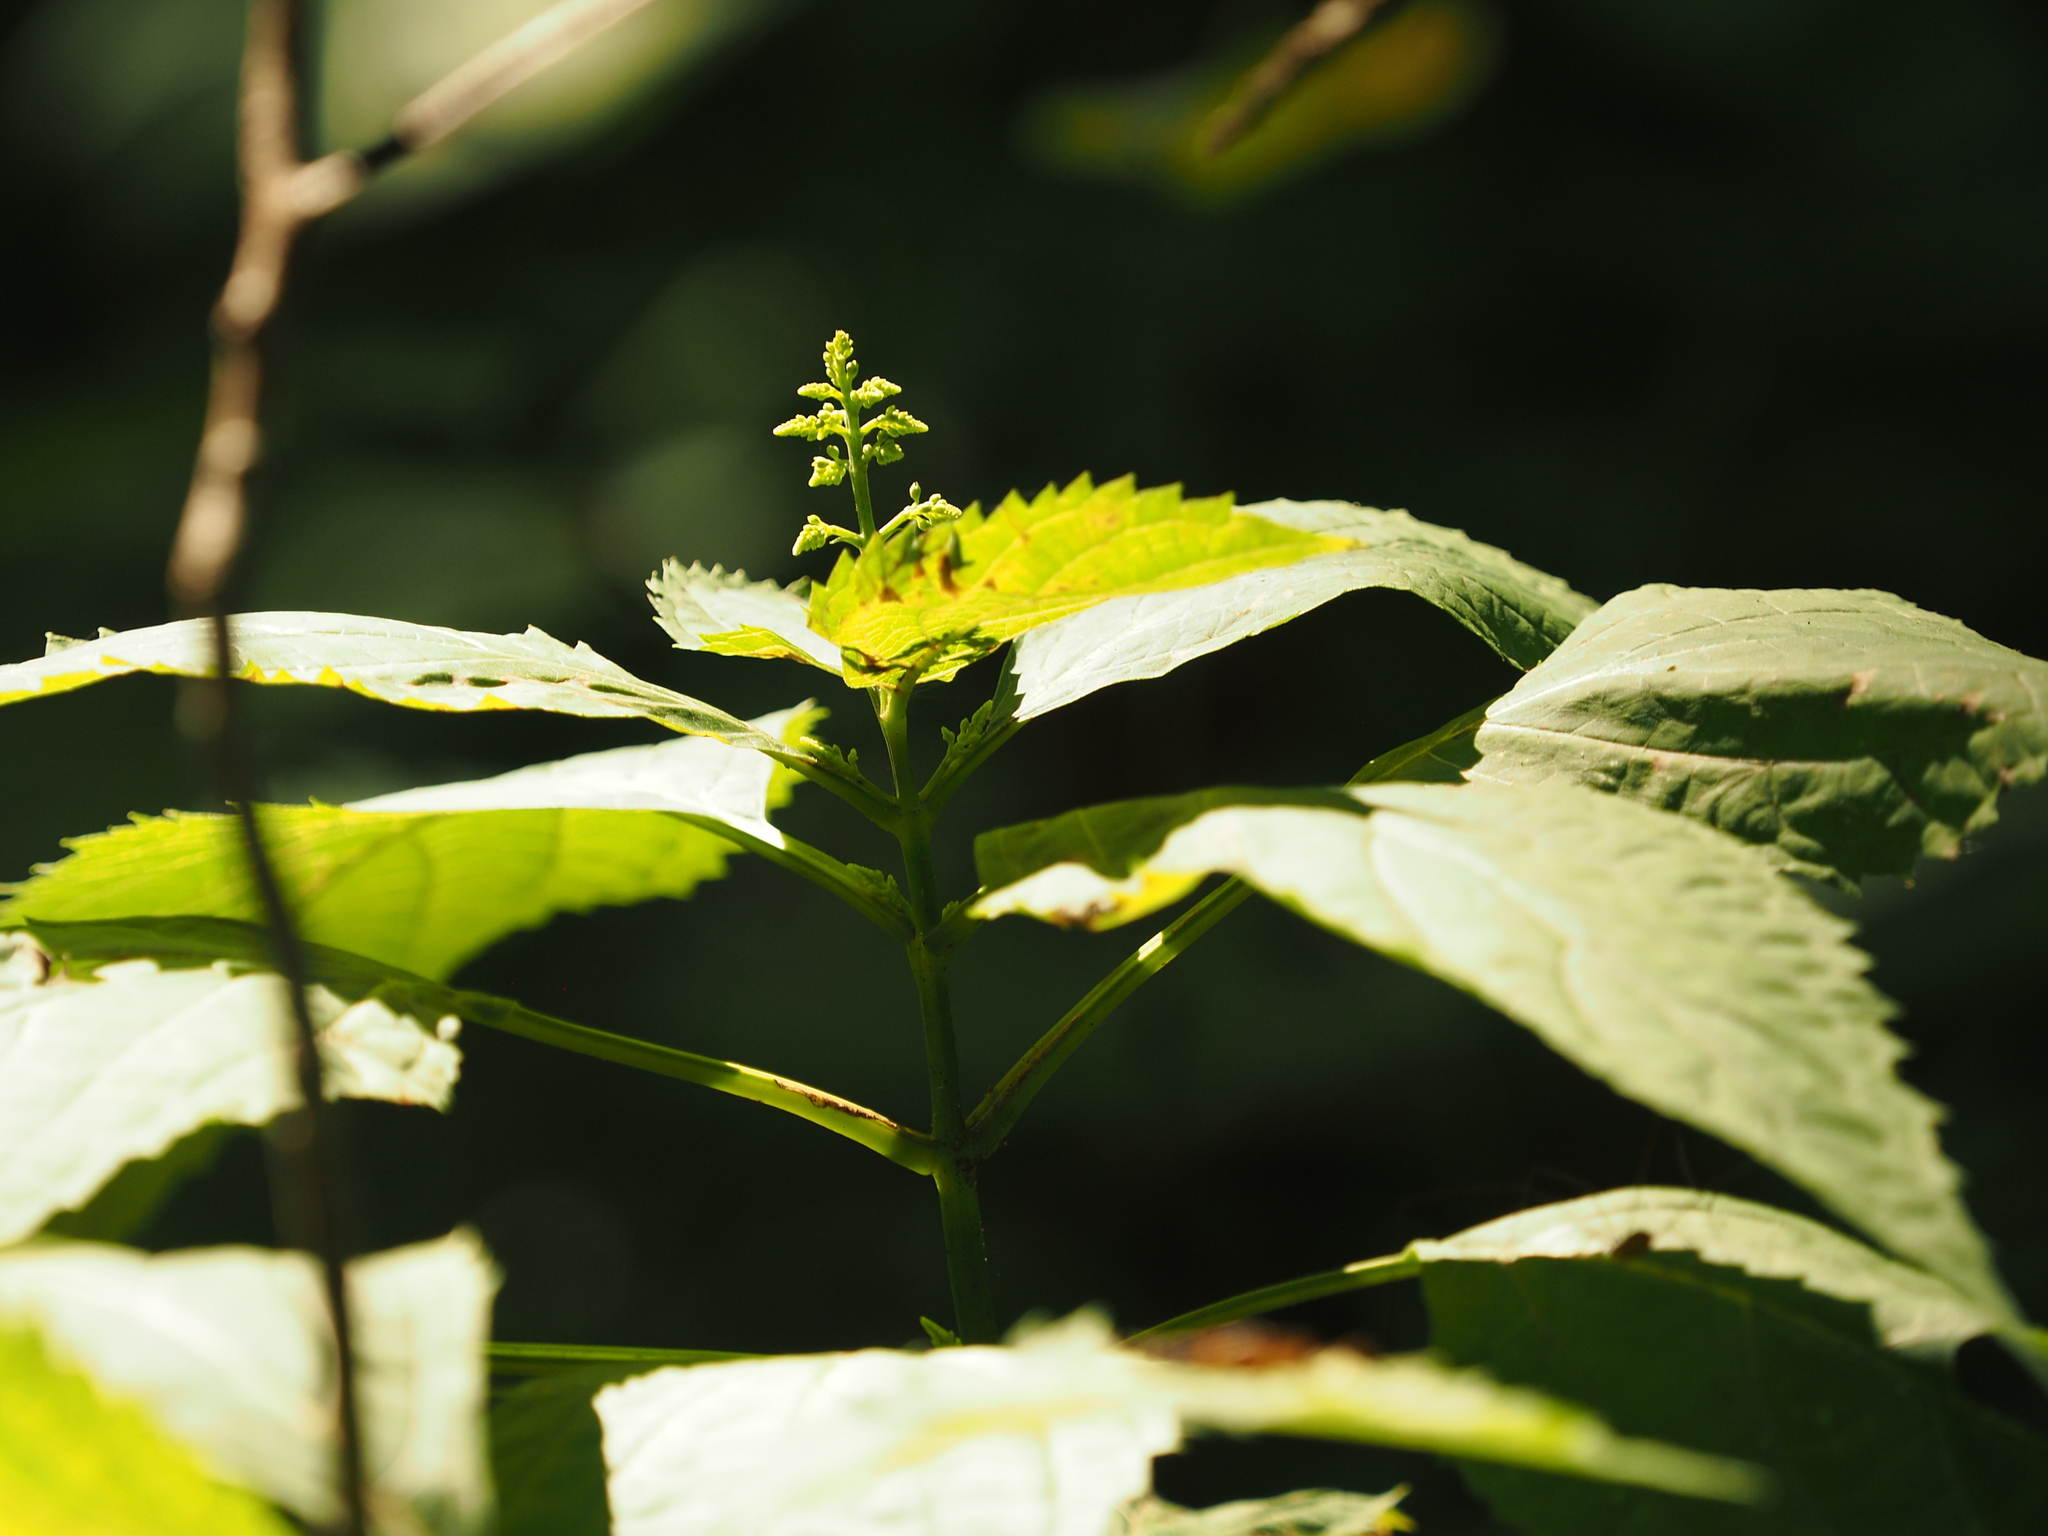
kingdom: Plantae
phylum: Tracheophyta
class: Magnoliopsida
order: Lamiales
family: Lamiaceae
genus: Collinsonia
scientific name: Collinsonia canadensis
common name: Northern horsebalm
